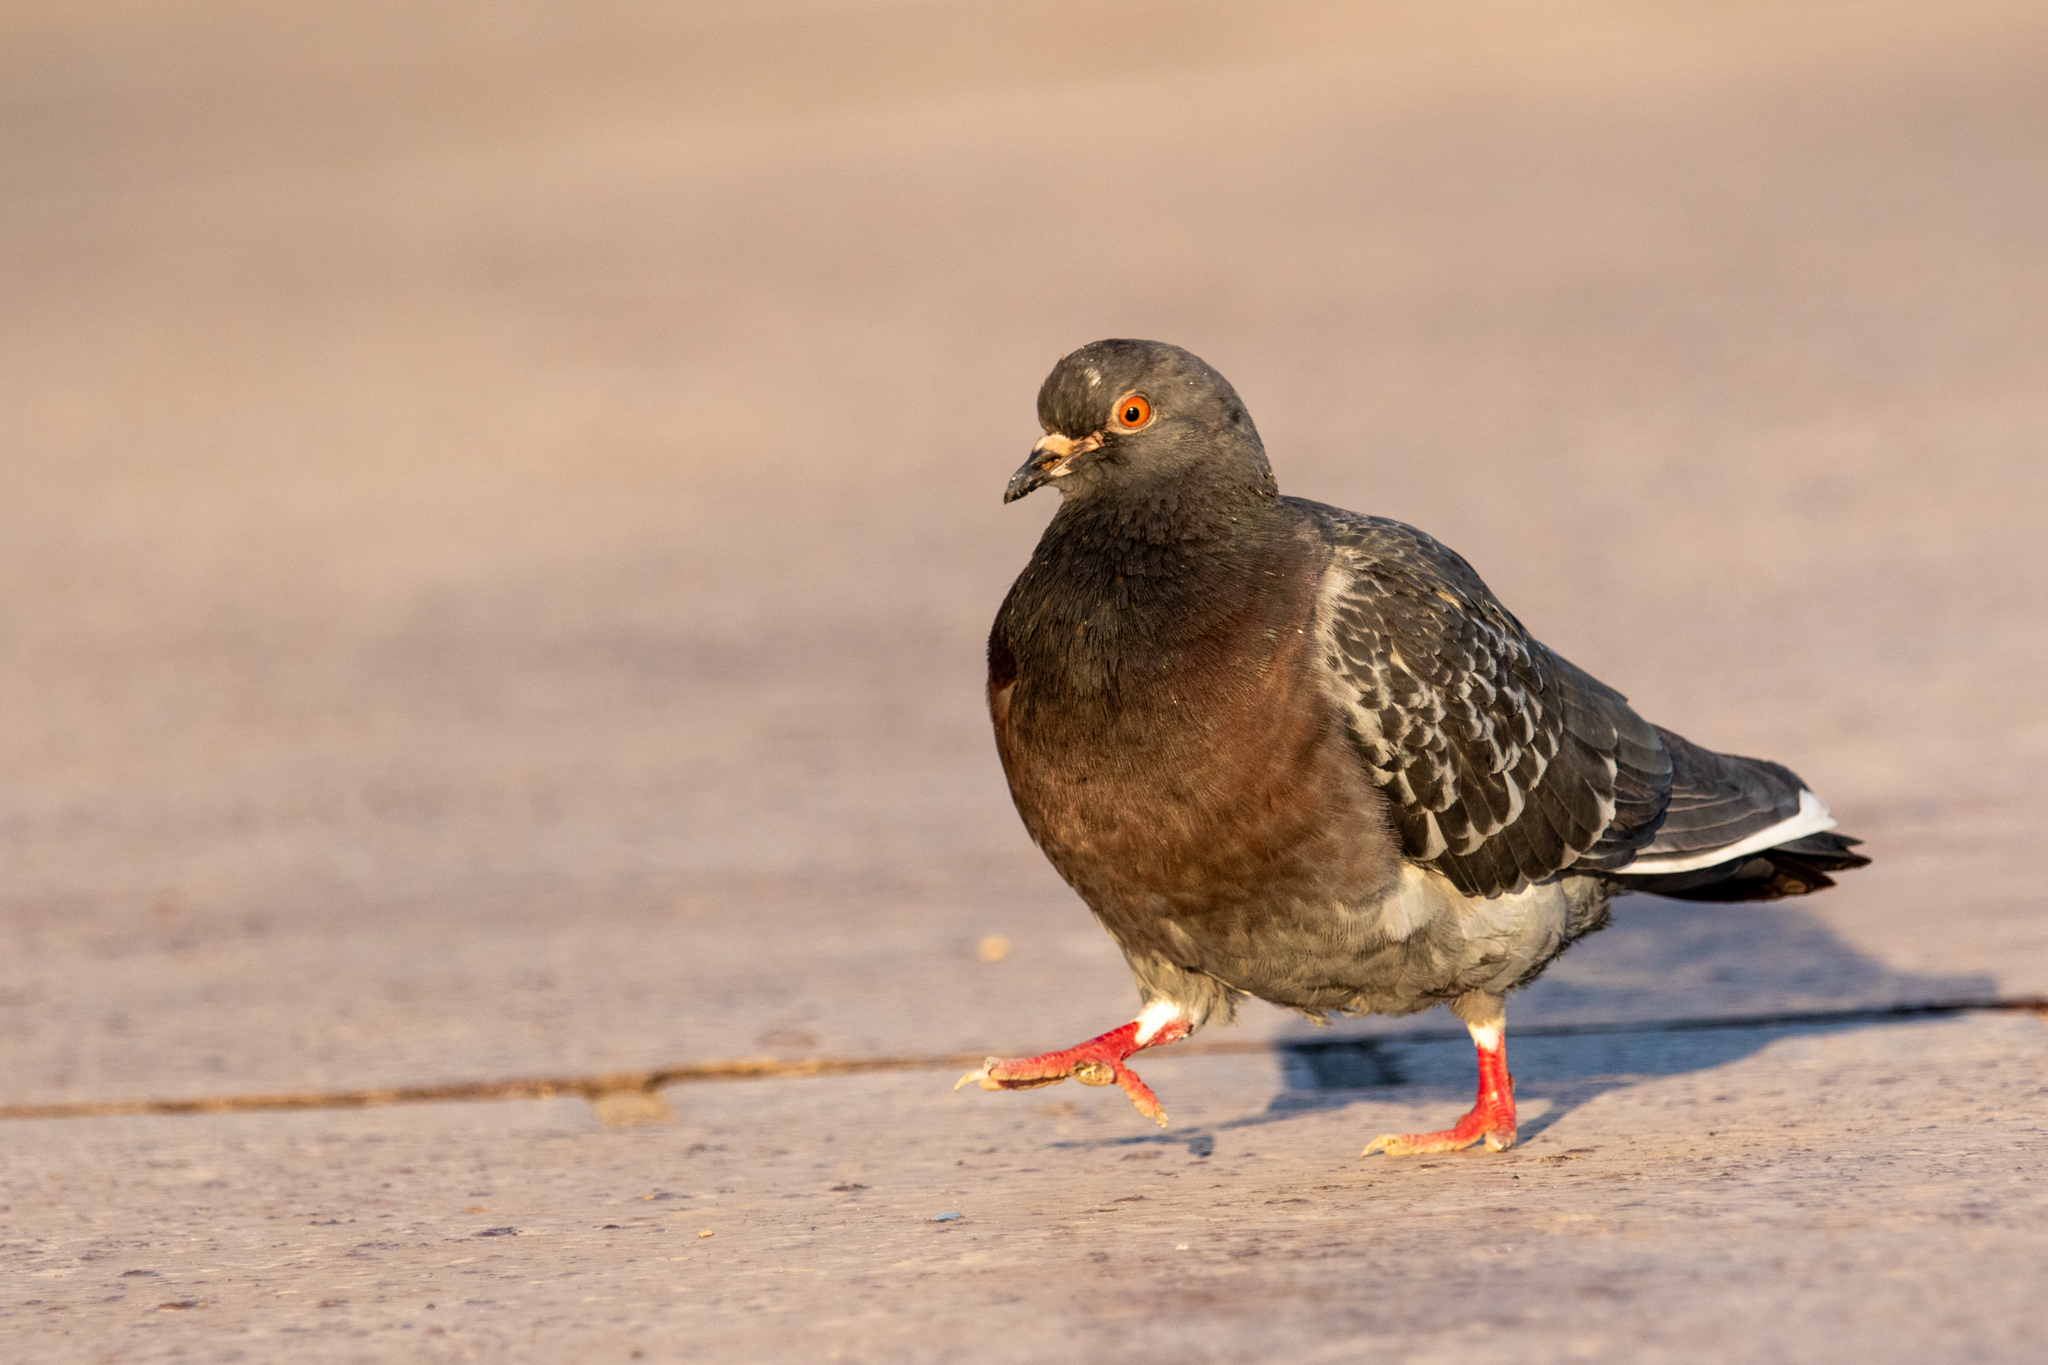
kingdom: Animalia
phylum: Chordata
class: Aves
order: Columbiformes
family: Columbidae
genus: Columba
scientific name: Columba livia
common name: Rock pigeon
